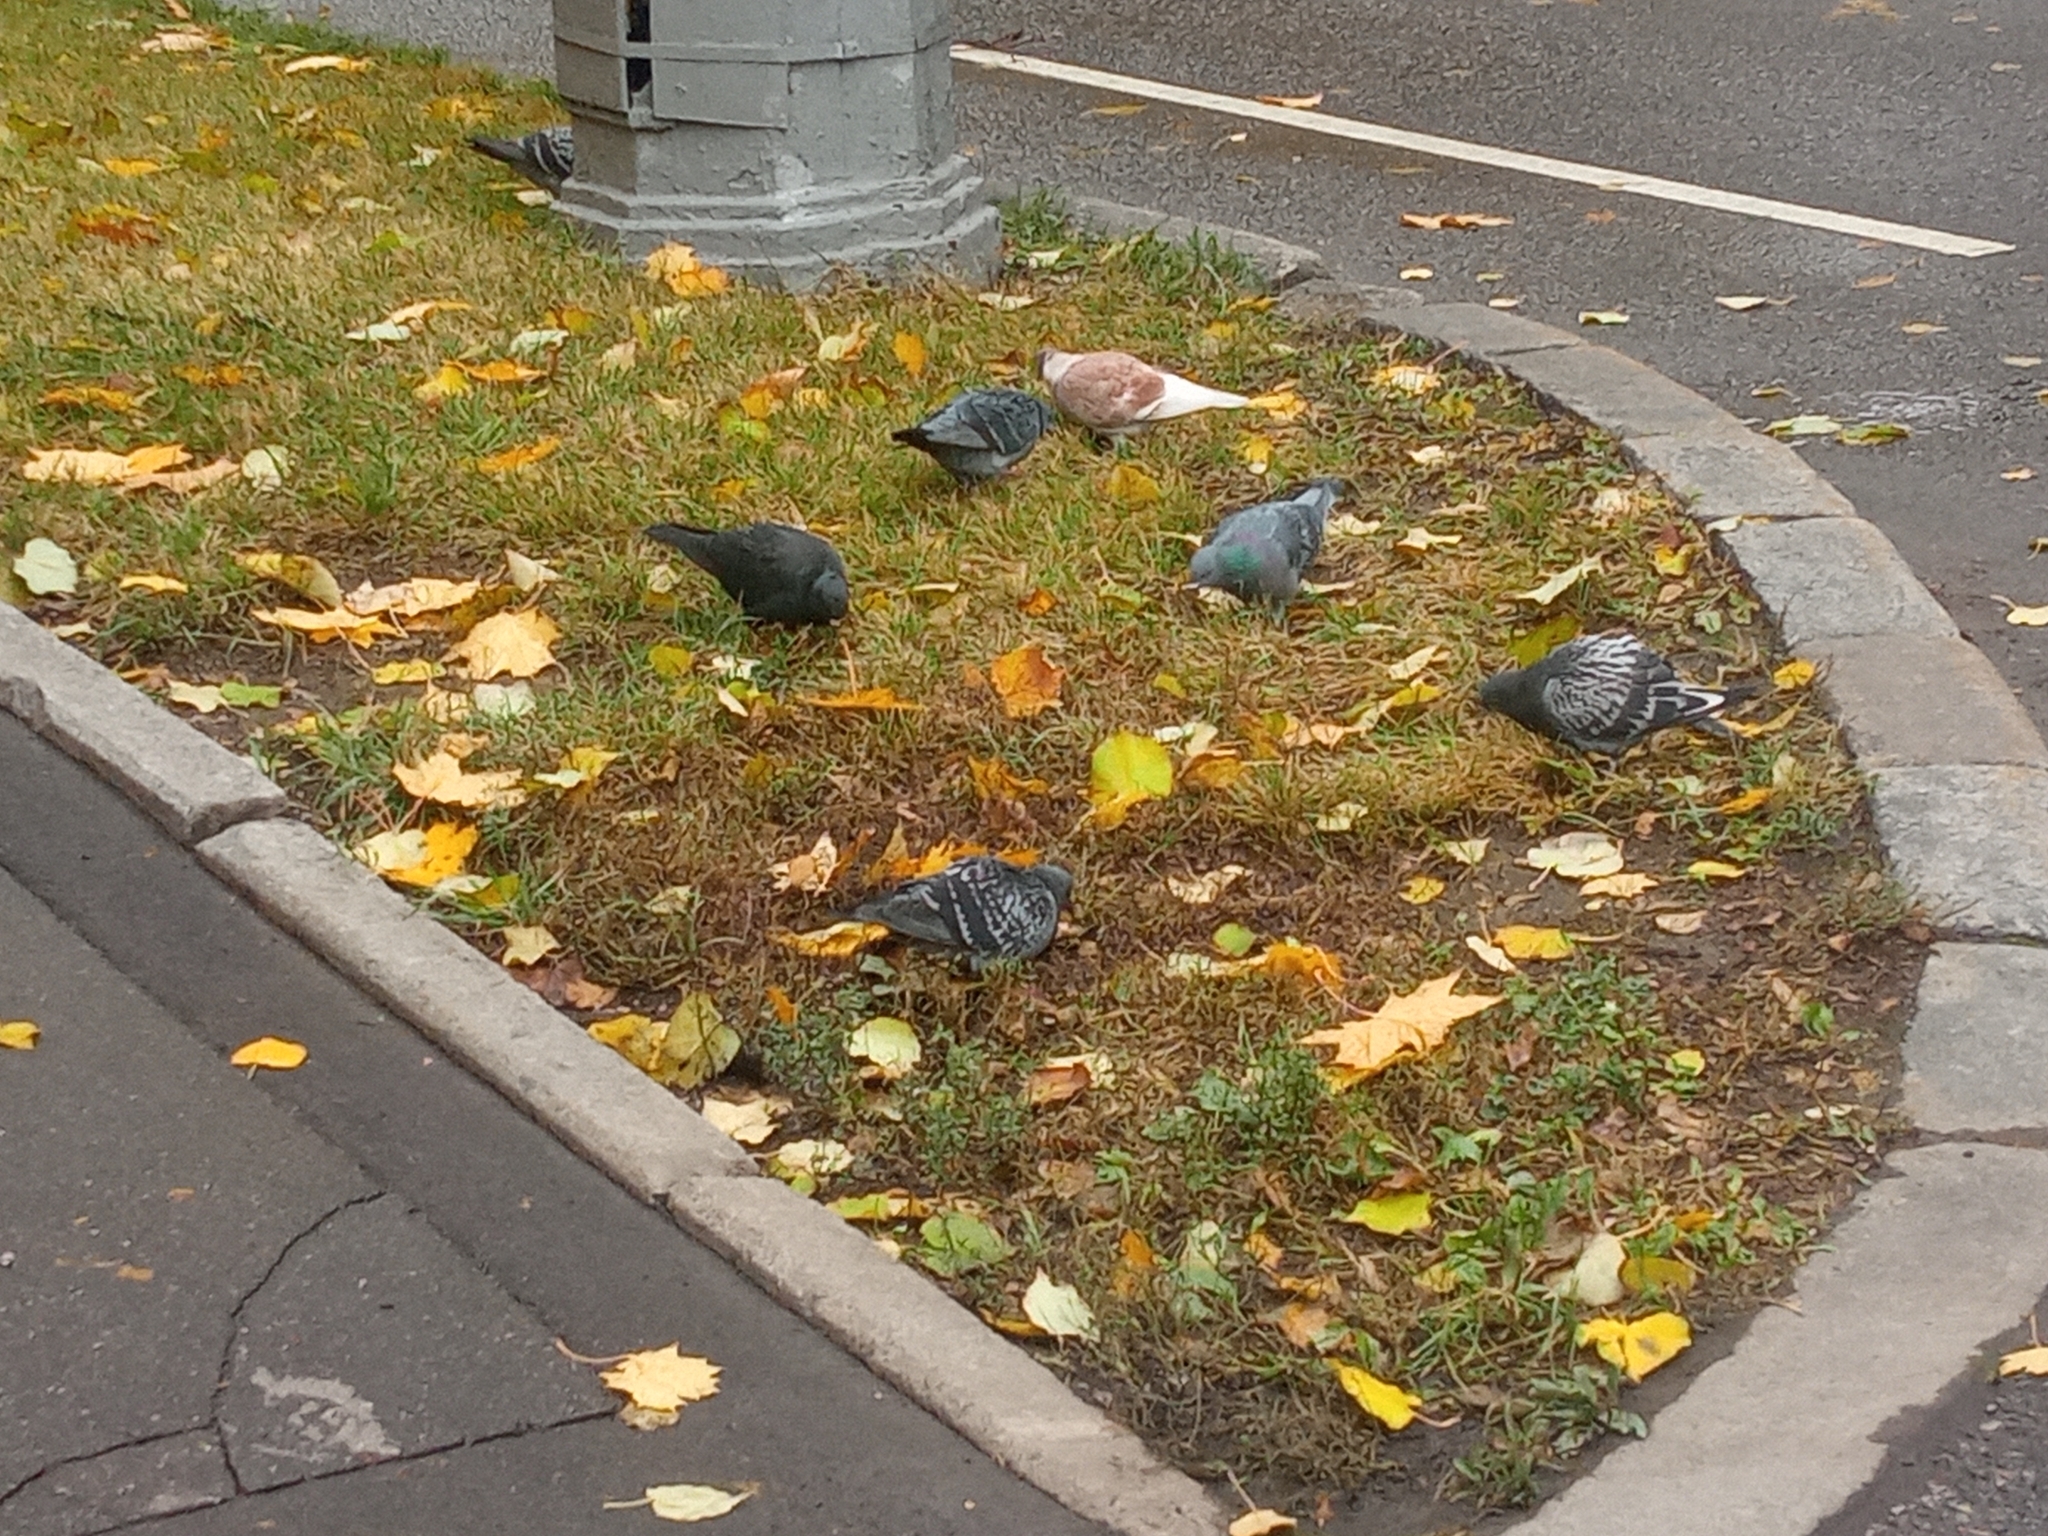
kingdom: Animalia
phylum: Chordata
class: Aves
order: Columbiformes
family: Columbidae
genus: Columba
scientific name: Columba livia
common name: Rock pigeon
